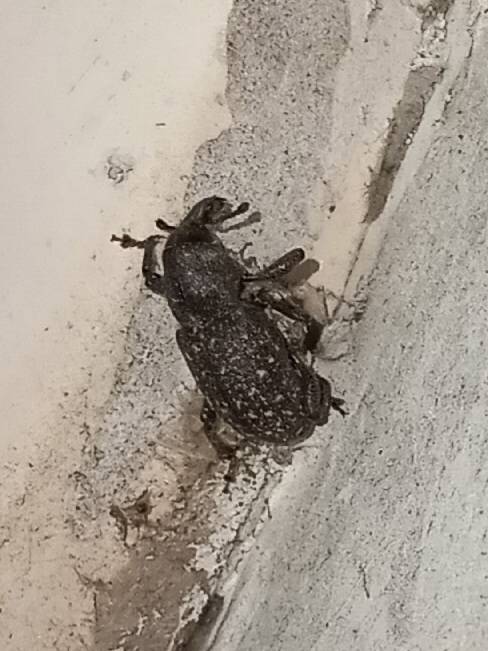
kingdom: Animalia
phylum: Arthropoda
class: Insecta
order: Coleoptera
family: Curculionidae
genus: Pachylobius
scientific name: Pachylobius picivorus
